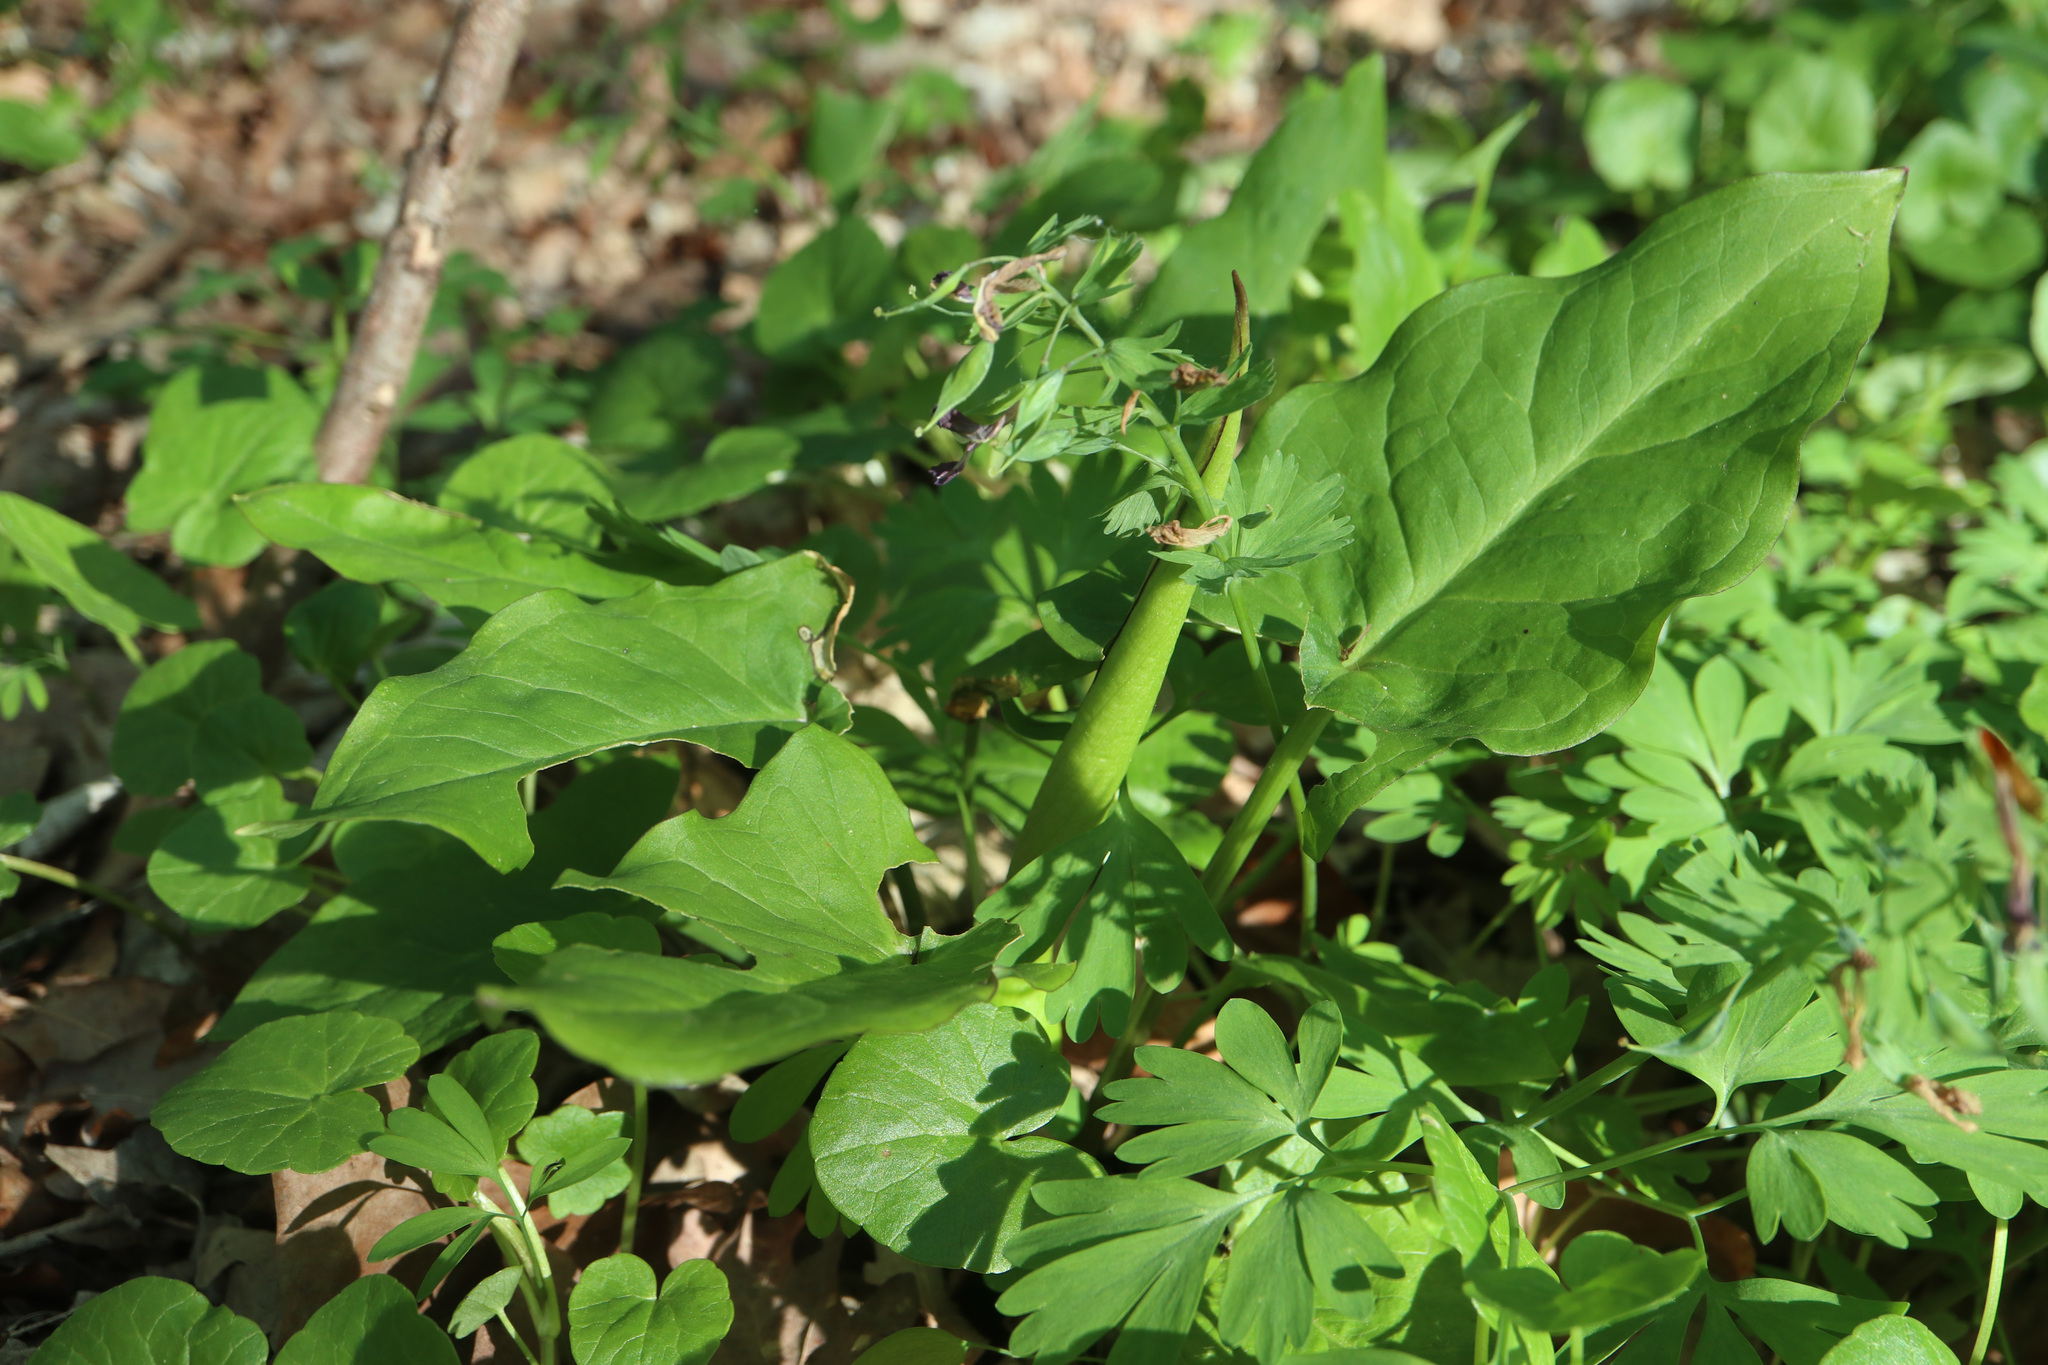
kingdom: Plantae
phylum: Tracheophyta
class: Liliopsida
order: Alismatales
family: Araceae
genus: Arum
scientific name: Arum maculatum
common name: Lords-and-ladies
